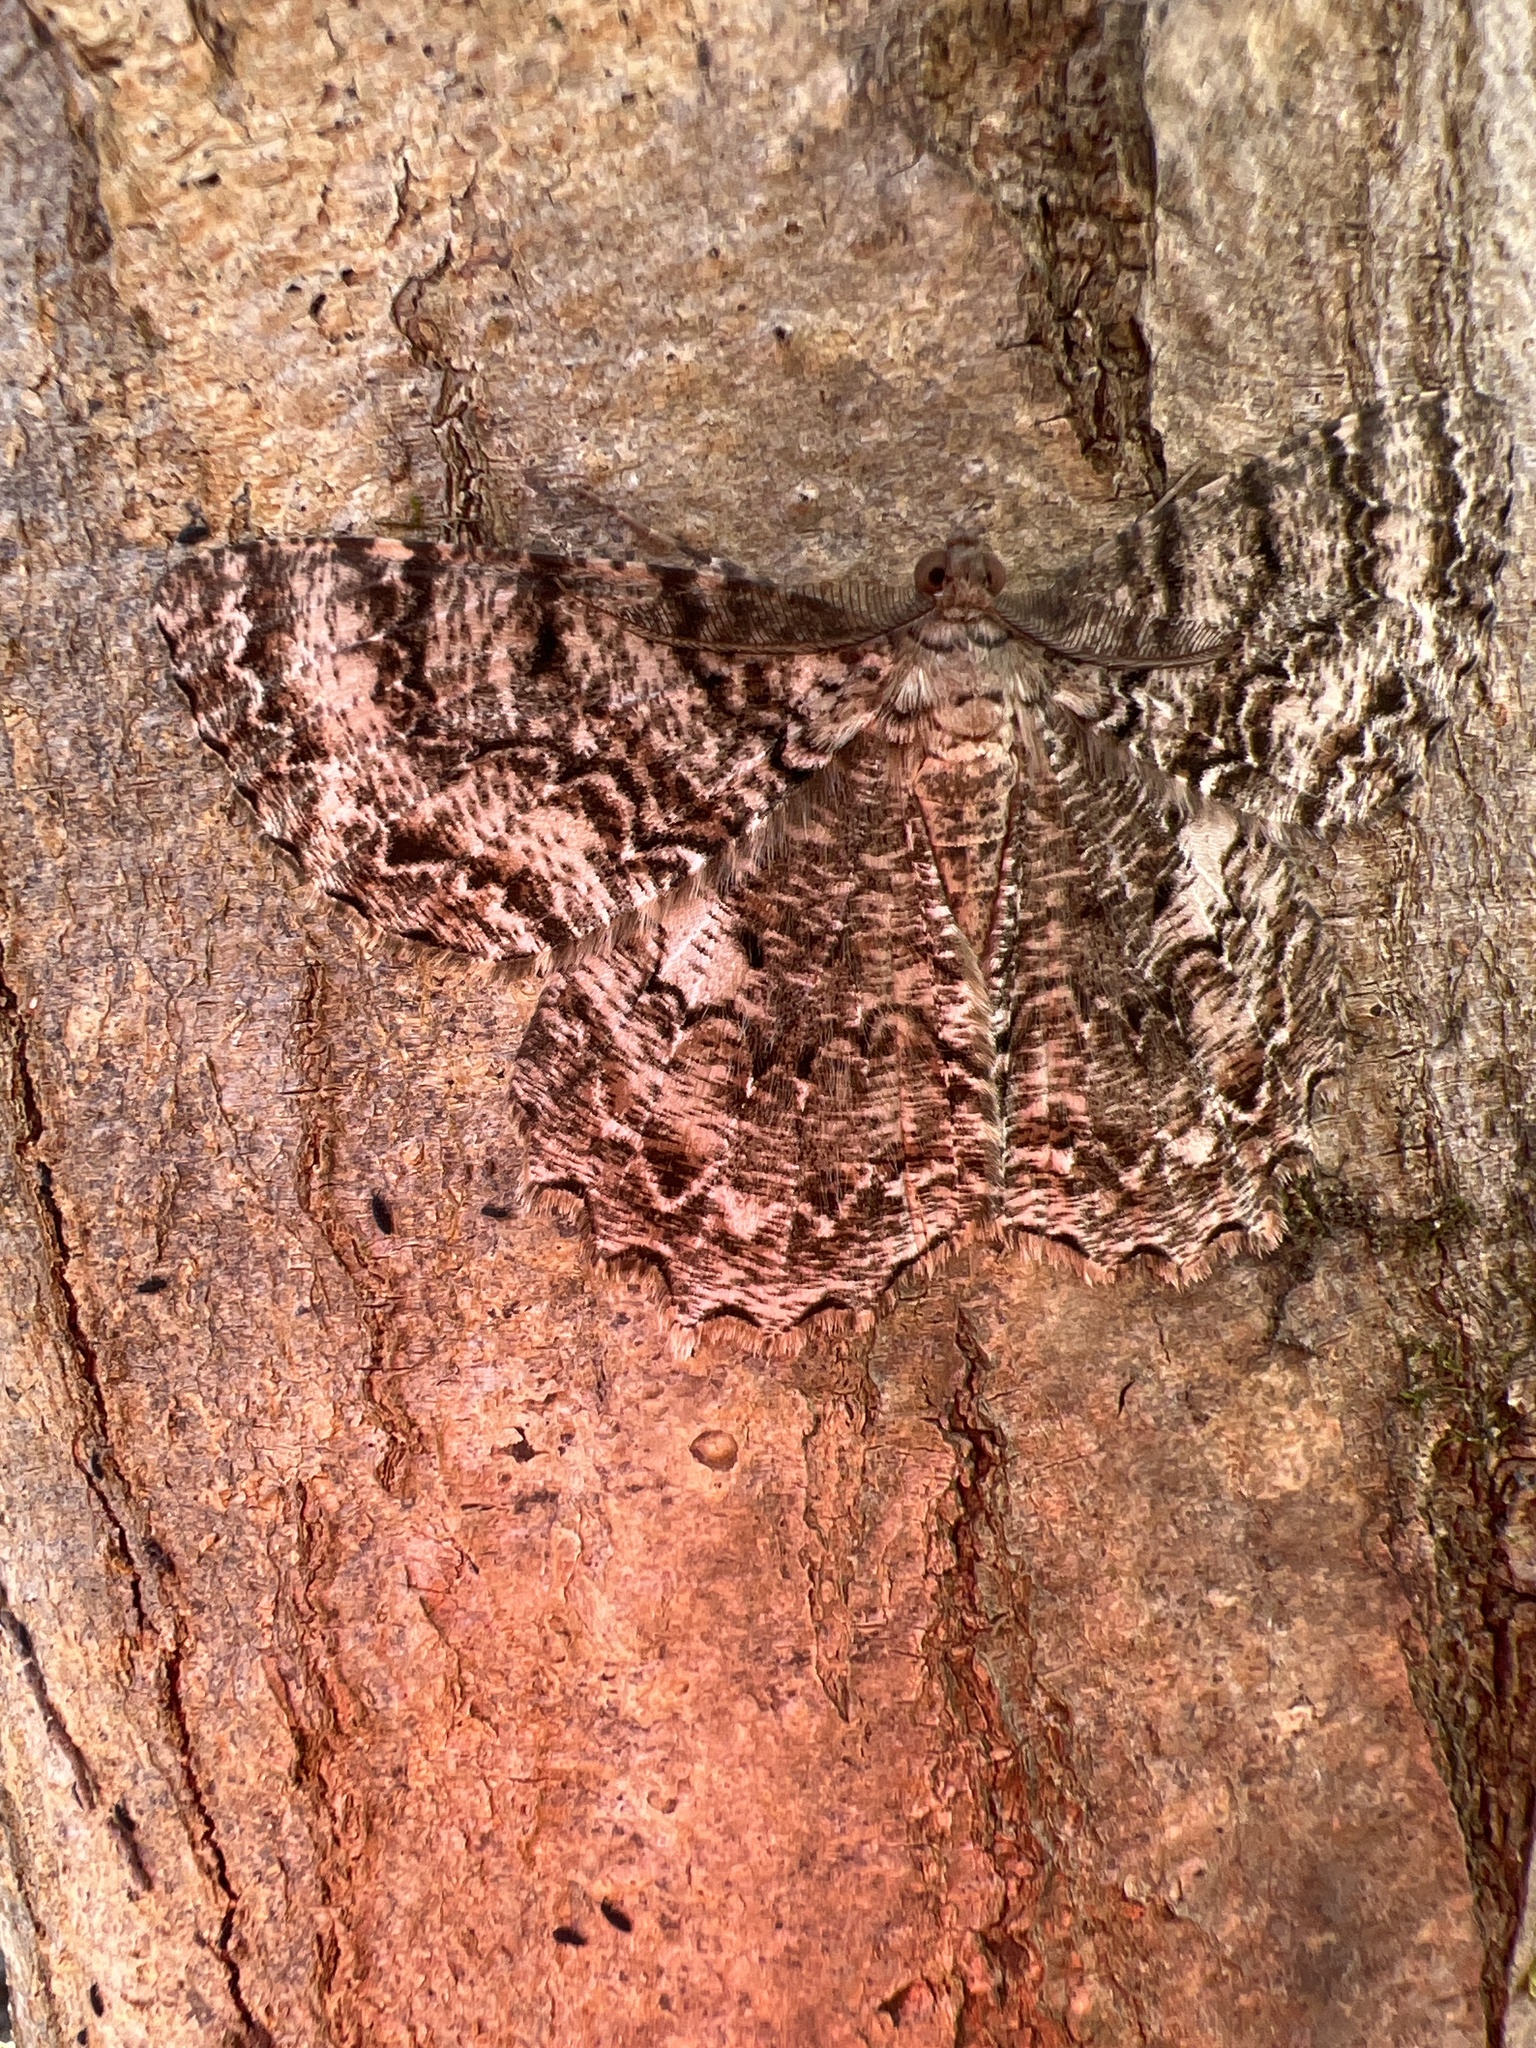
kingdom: Animalia
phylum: Arthropoda
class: Insecta
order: Lepidoptera
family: Geometridae
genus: Epimecis
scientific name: Epimecis hortaria
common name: Tulip-tree beauty
